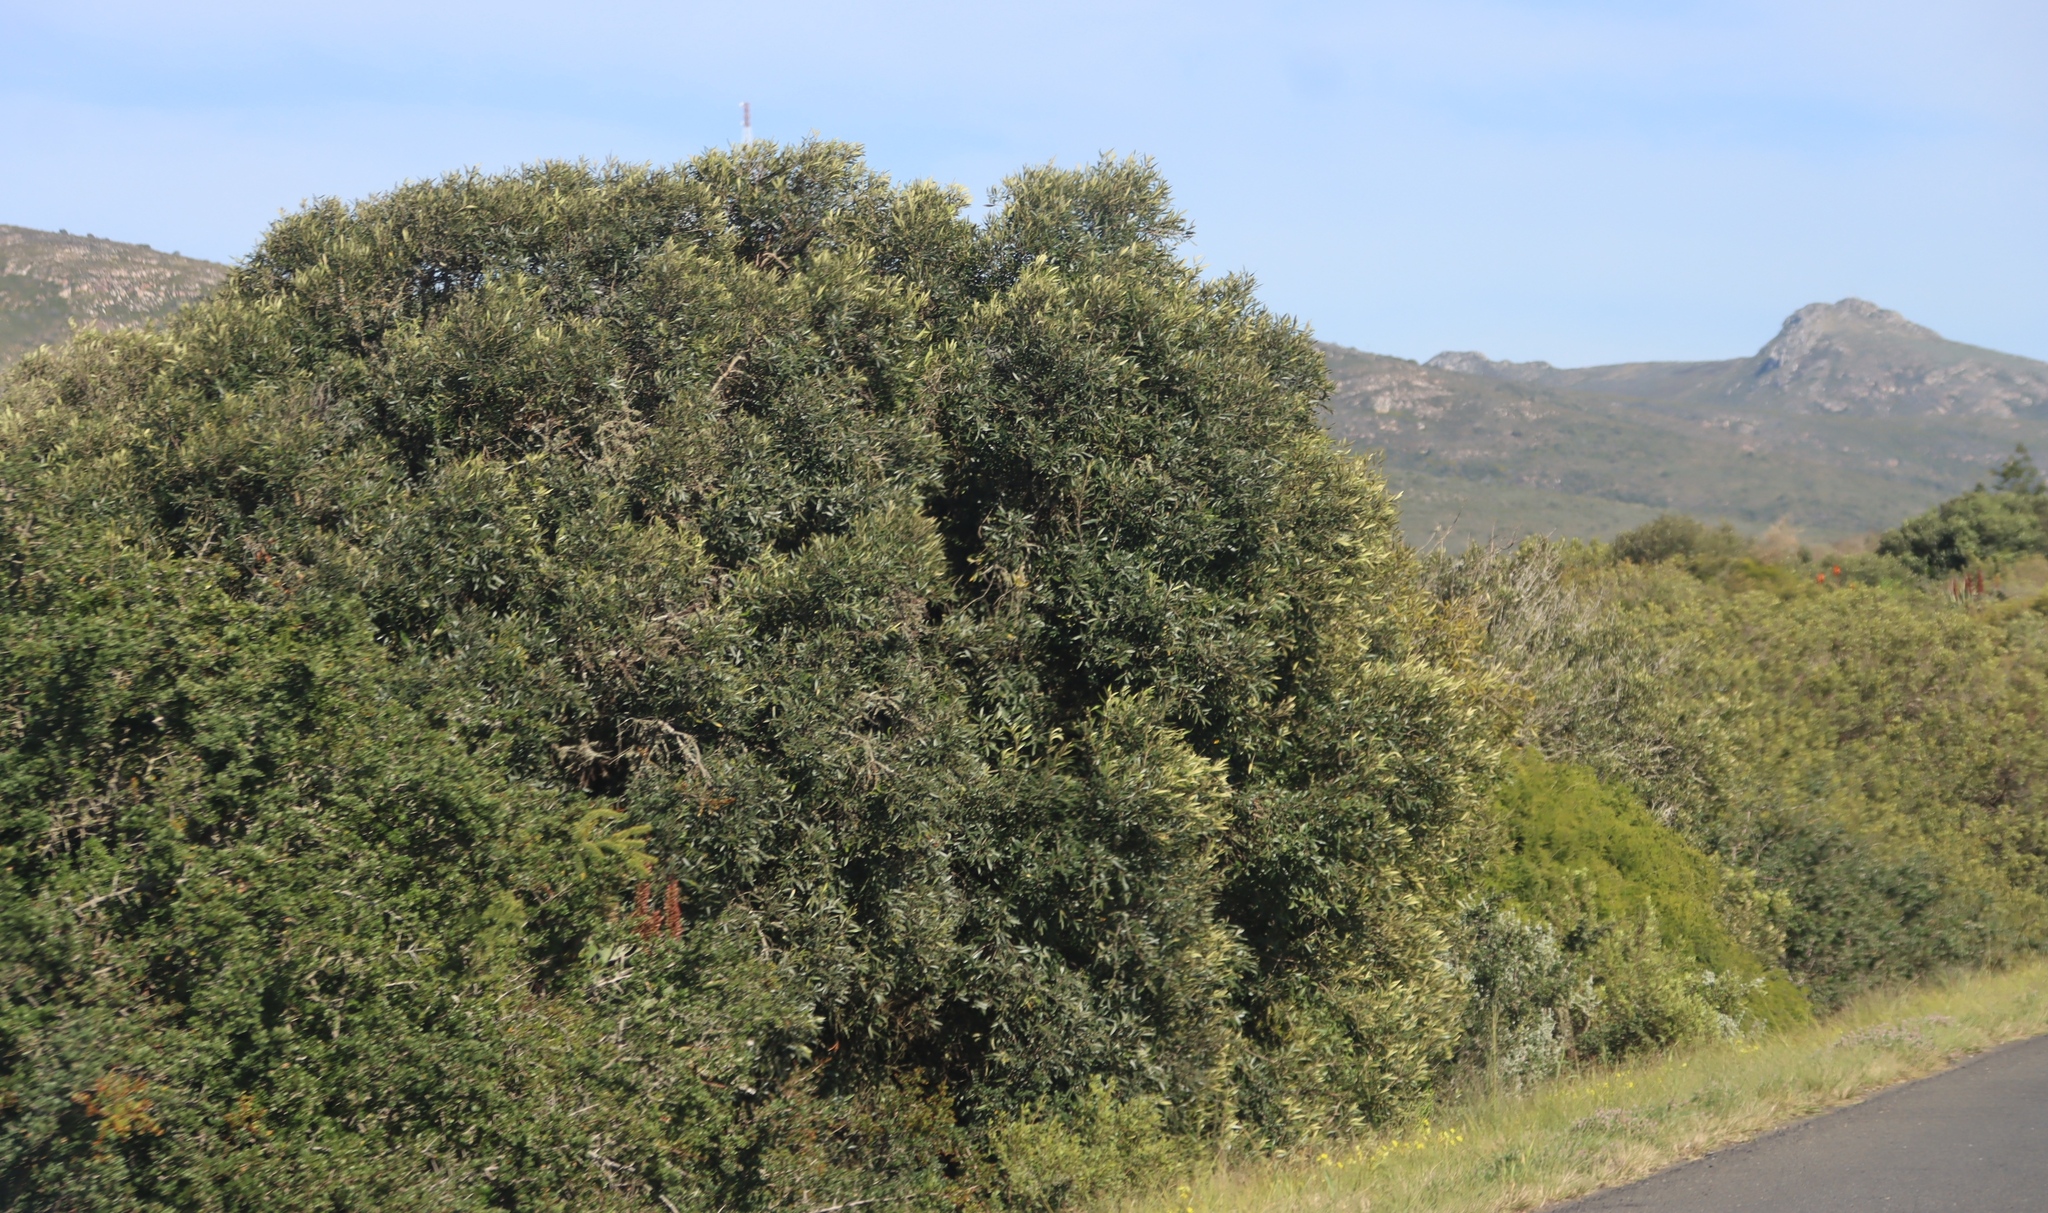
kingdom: Plantae
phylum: Tracheophyta
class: Magnoliopsida
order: Lamiales
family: Oleaceae
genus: Olea
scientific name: Olea europaea
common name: Olive
